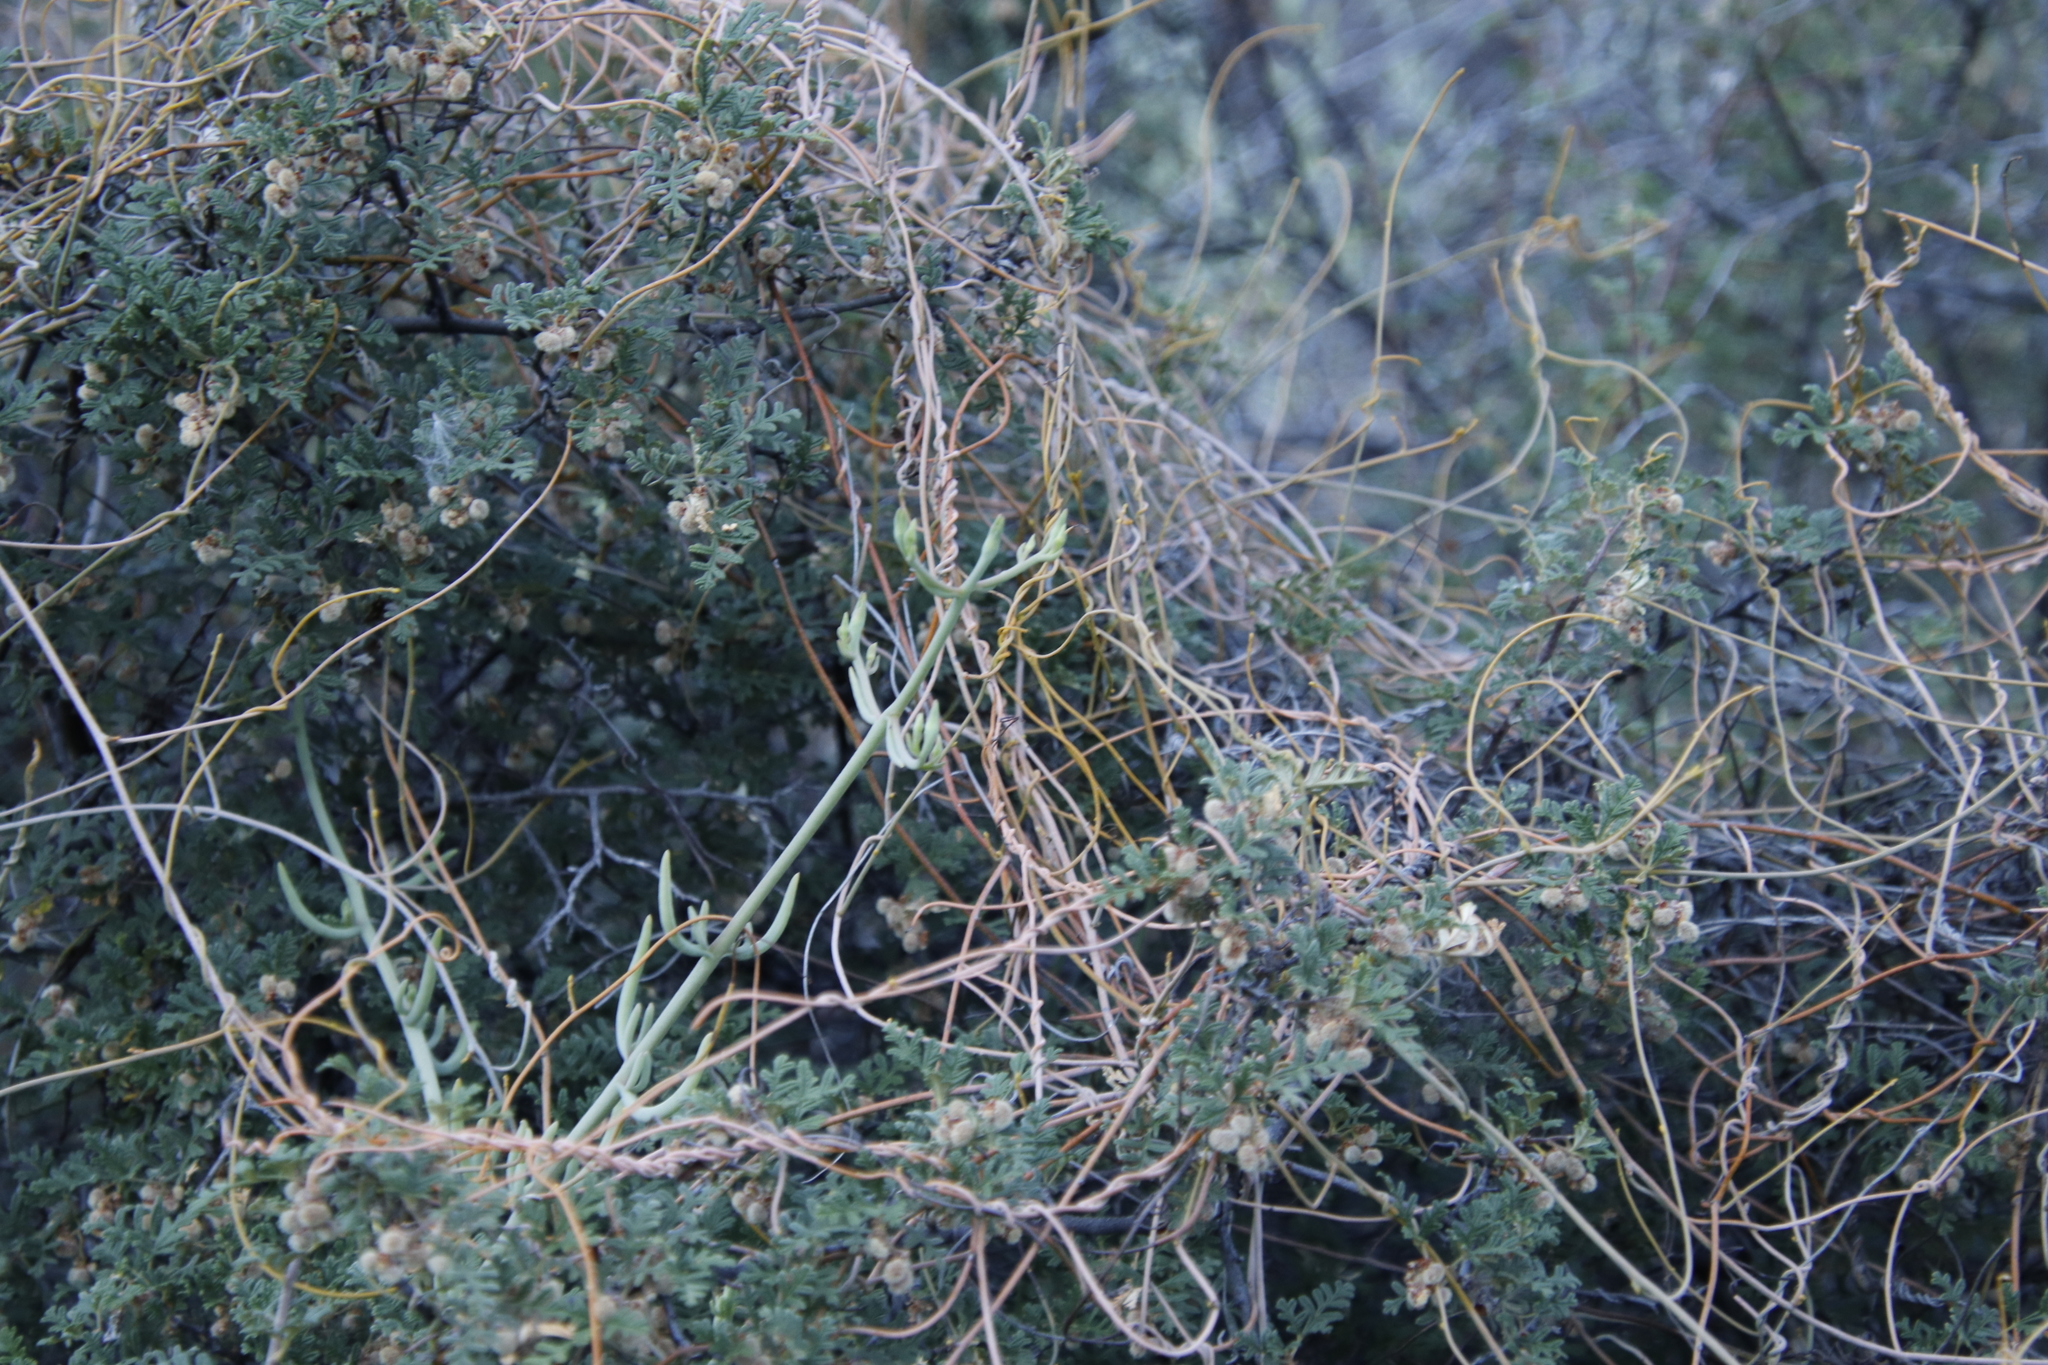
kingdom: Plantae
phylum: Tracheophyta
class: Magnoliopsida
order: Laurales
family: Lauraceae
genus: Cassytha
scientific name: Cassytha ciliolata
